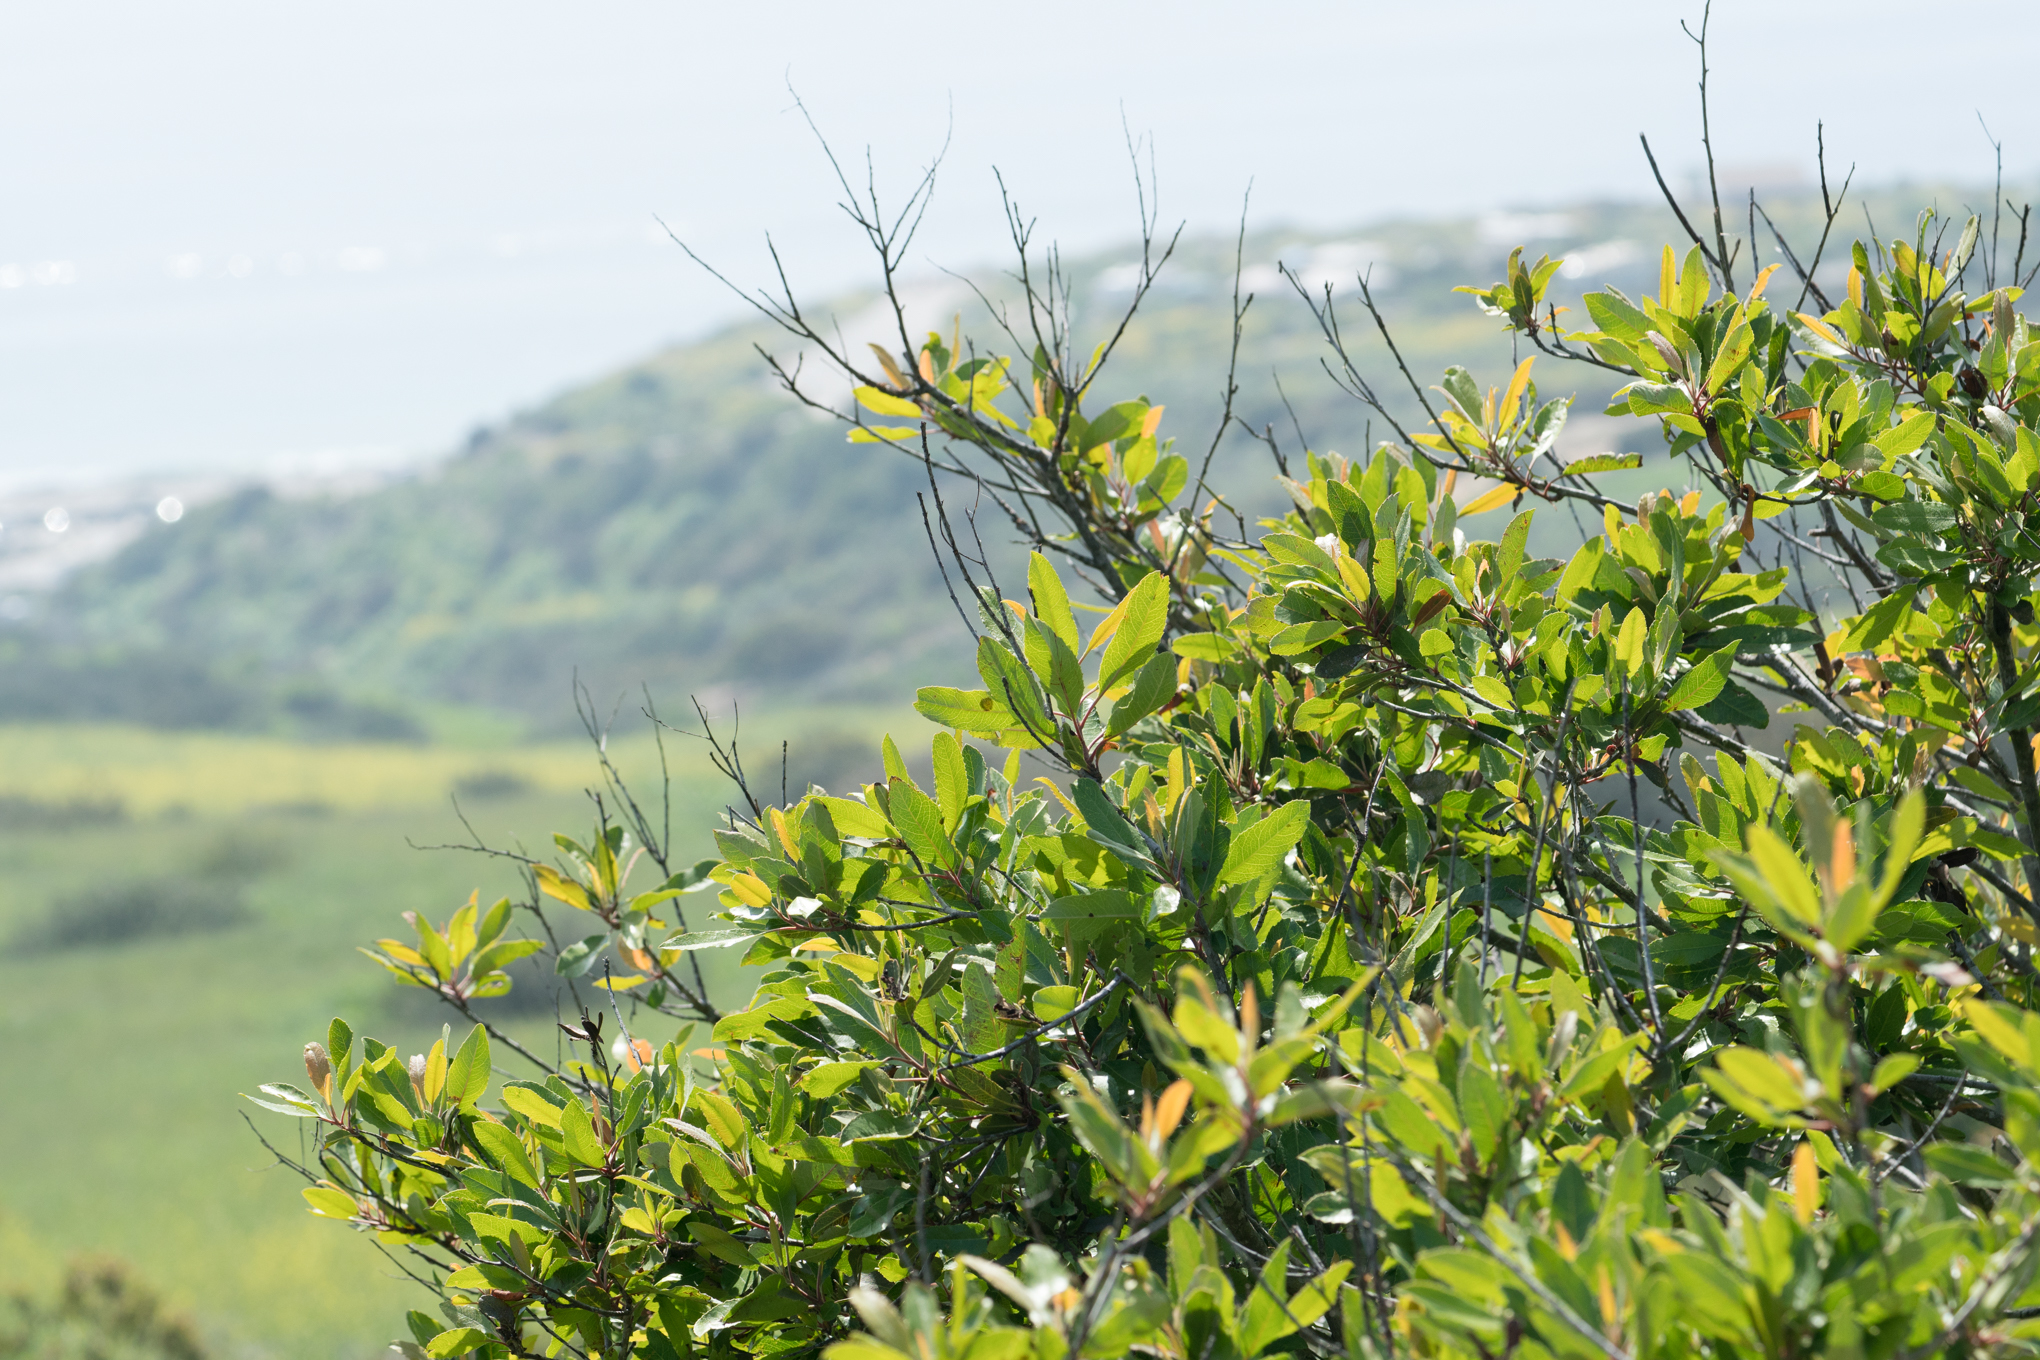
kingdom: Plantae
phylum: Tracheophyta
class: Magnoliopsida
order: Rosales
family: Rosaceae
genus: Heteromeles
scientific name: Heteromeles arbutifolia
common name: California-holly
